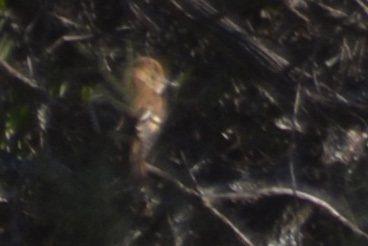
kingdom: Animalia
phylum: Chordata
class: Aves
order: Passeriformes
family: Tyrannidae
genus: Myiophobus
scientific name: Myiophobus fasciatus
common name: Bran-colored flycatcher
